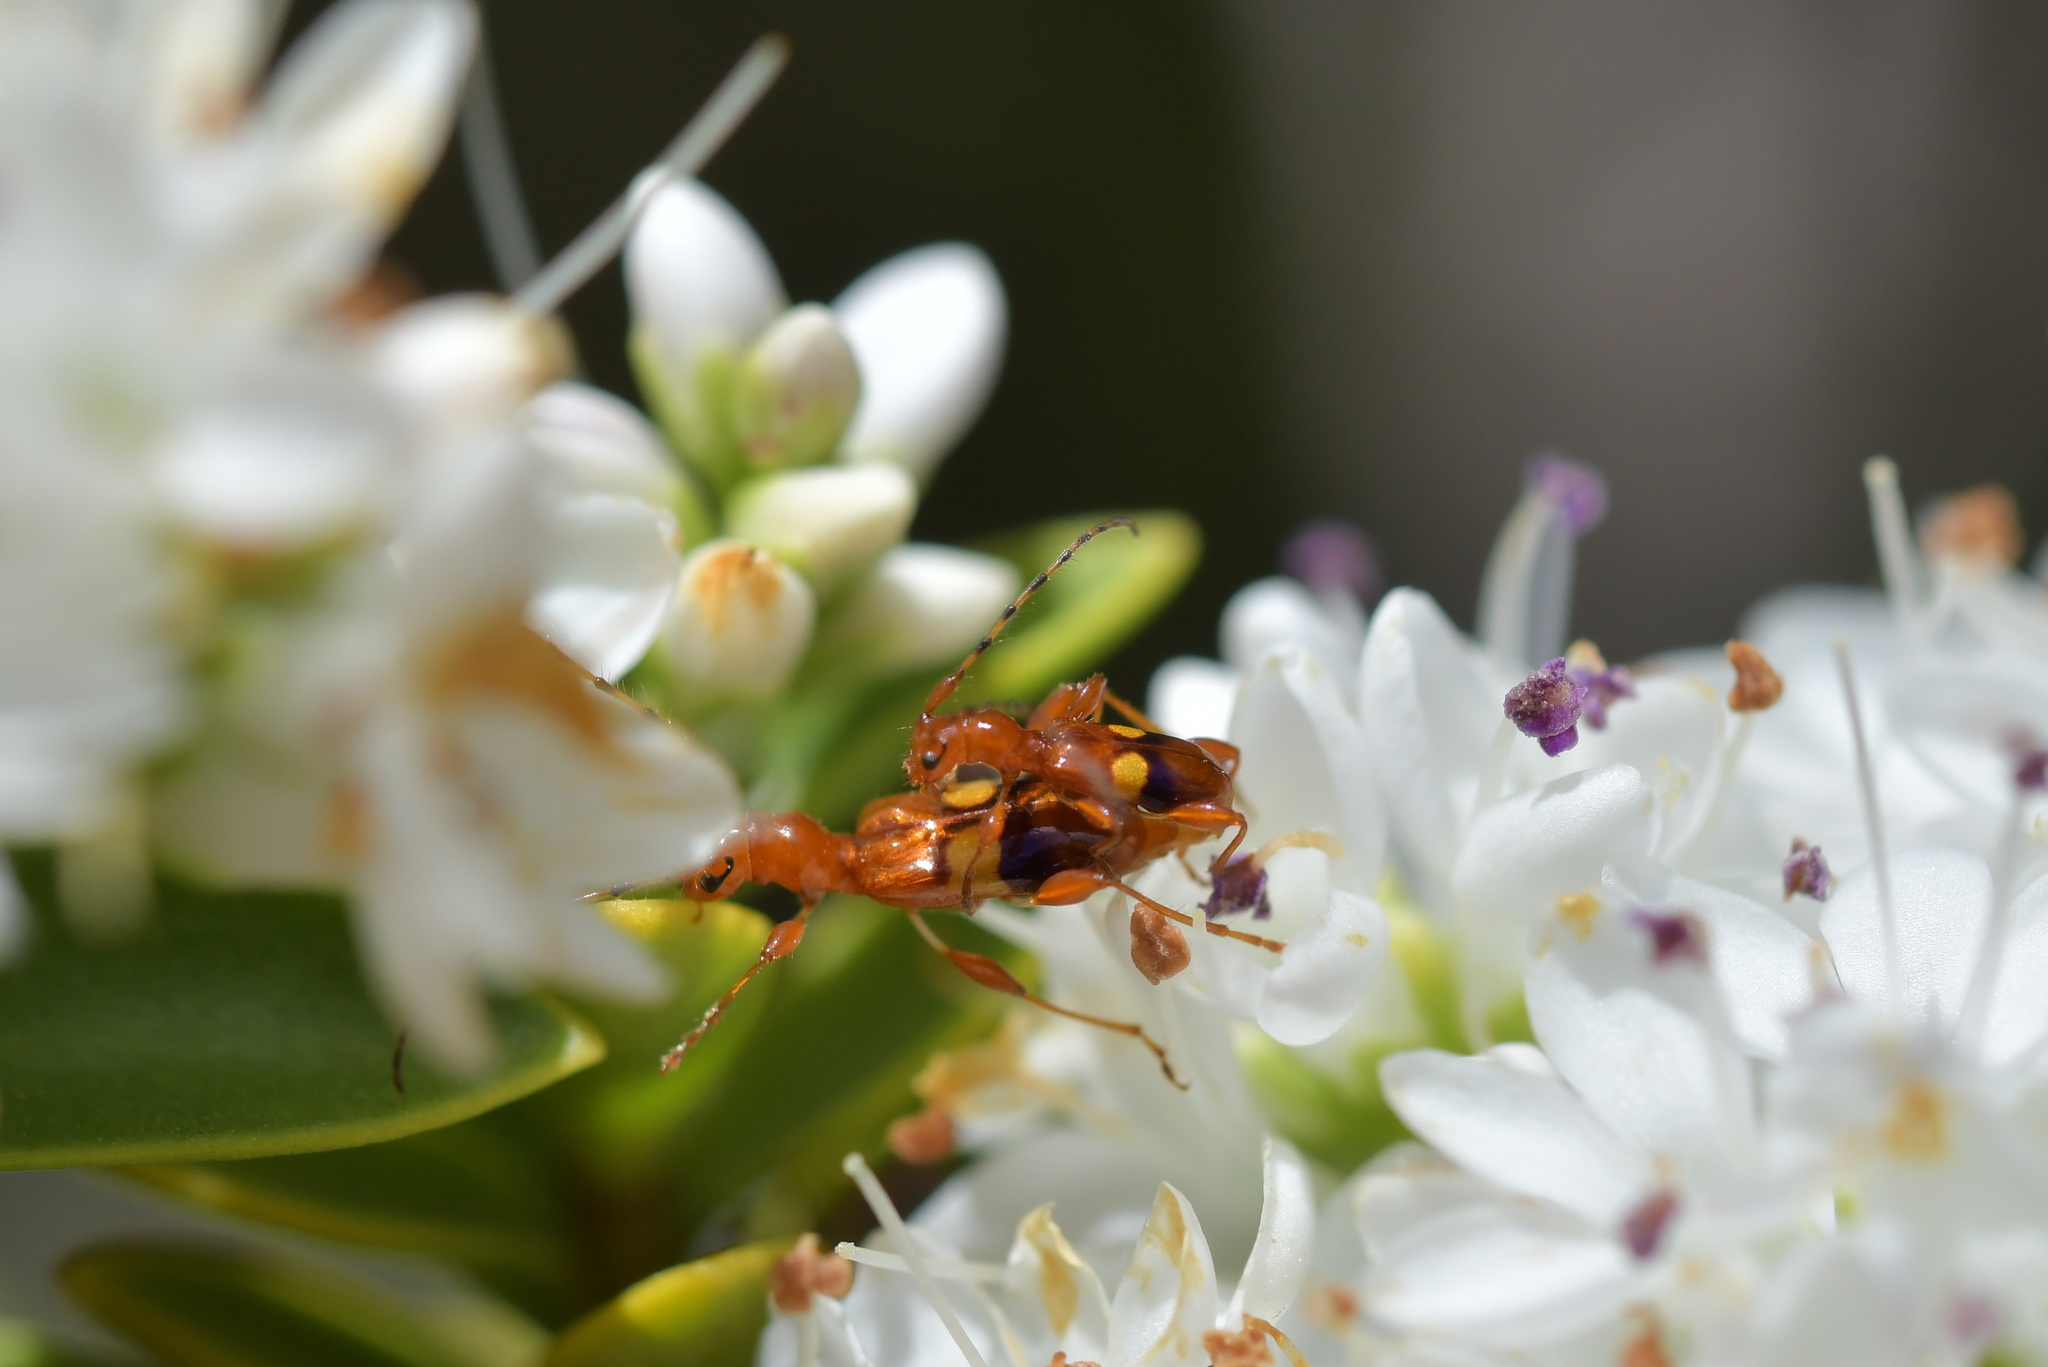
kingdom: Animalia
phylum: Arthropoda
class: Insecta
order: Coleoptera
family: Cerambycidae
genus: Zorion
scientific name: Zorion australe
